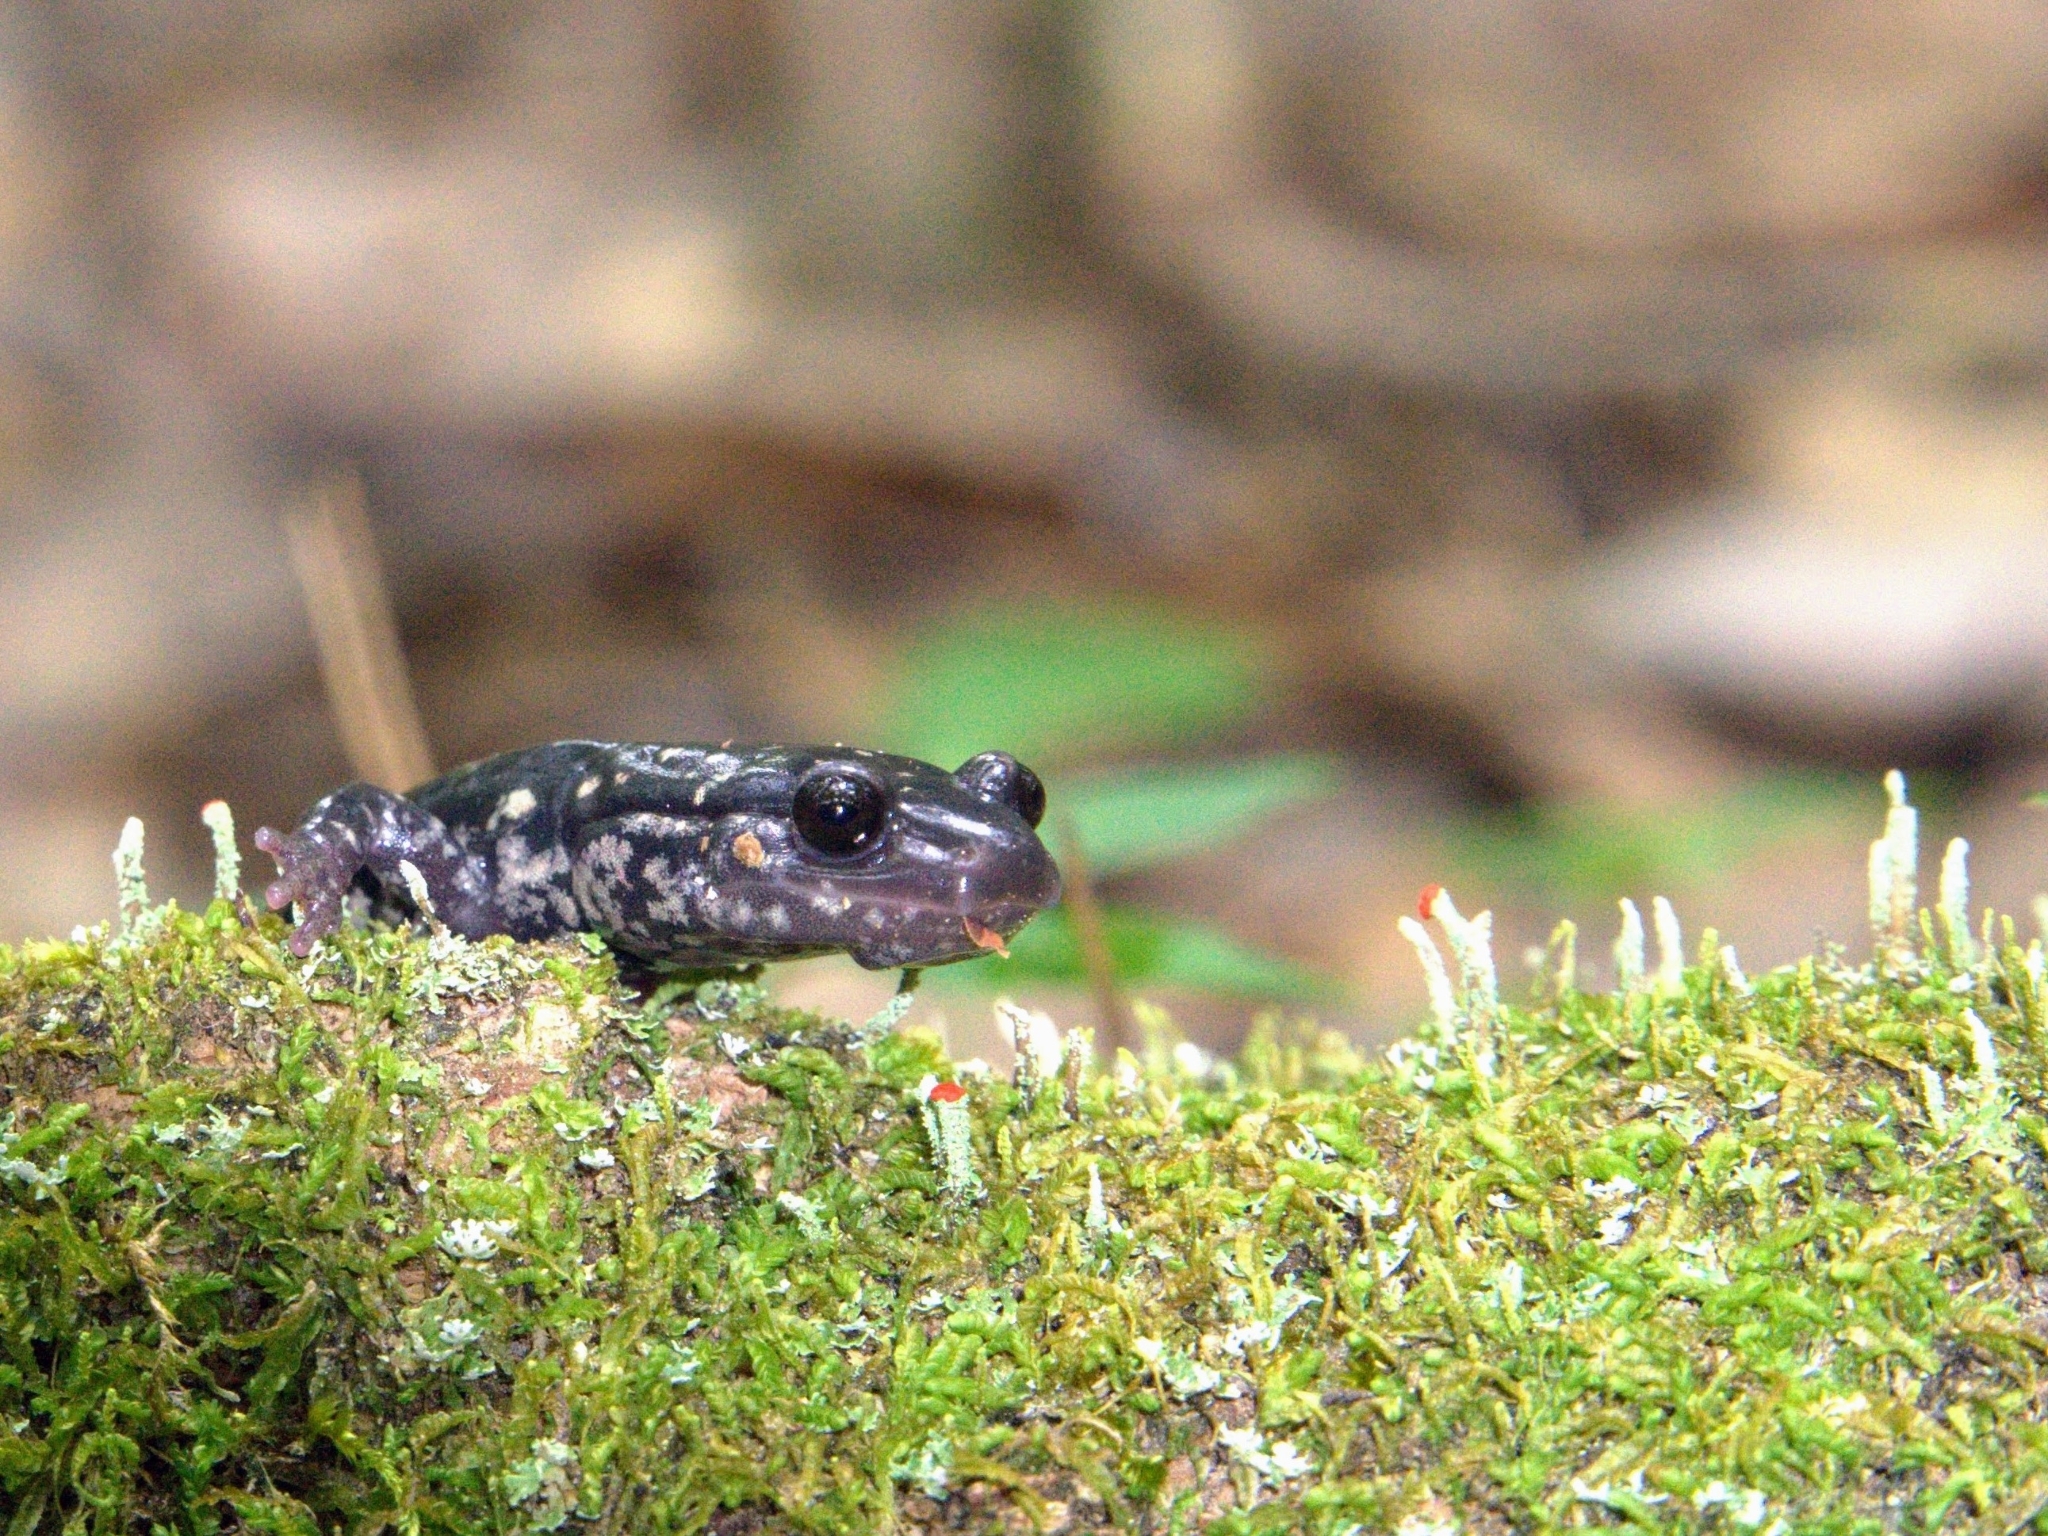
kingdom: Animalia
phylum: Chordata
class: Amphibia
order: Caudata
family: Plethodontidae
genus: Plethodon
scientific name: Plethodon mississippi
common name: Mississippi slimy salamander
